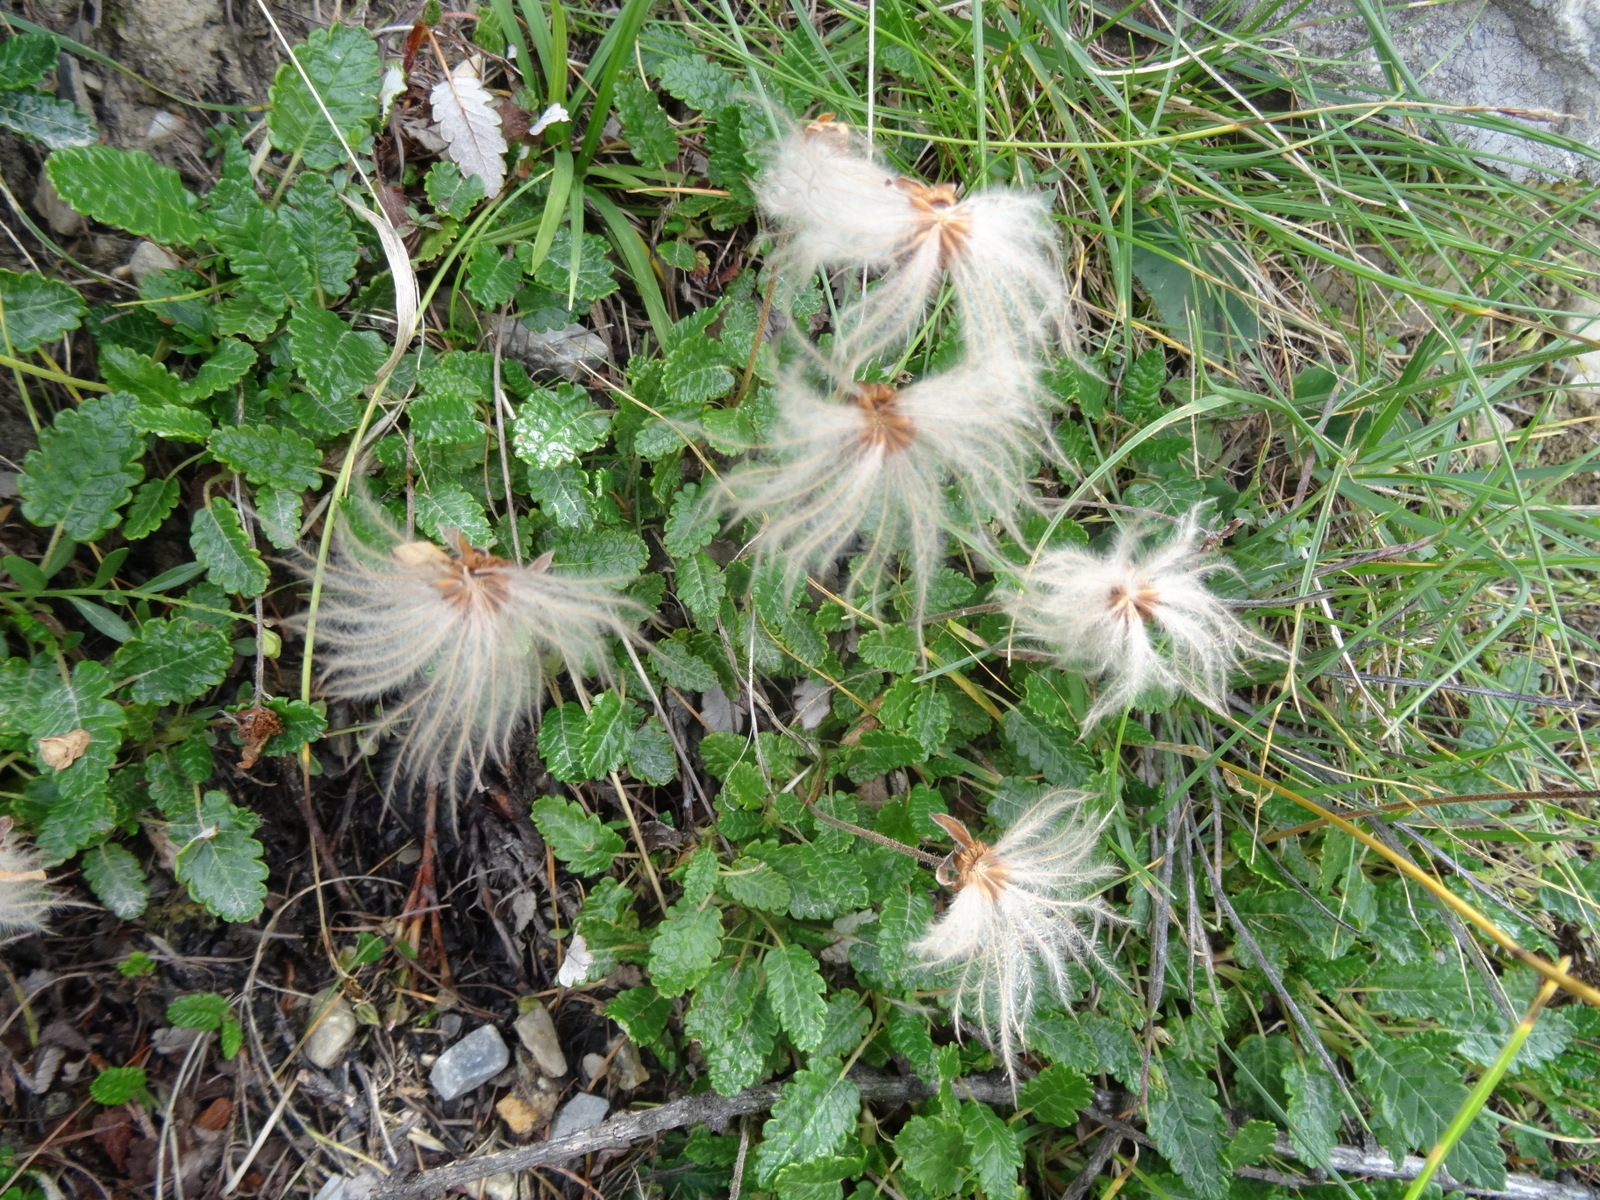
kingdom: Plantae
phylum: Tracheophyta
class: Magnoliopsida
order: Rosales
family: Rosaceae
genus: Dryas
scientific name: Dryas octopetala
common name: Eight-petal mountain-avens
